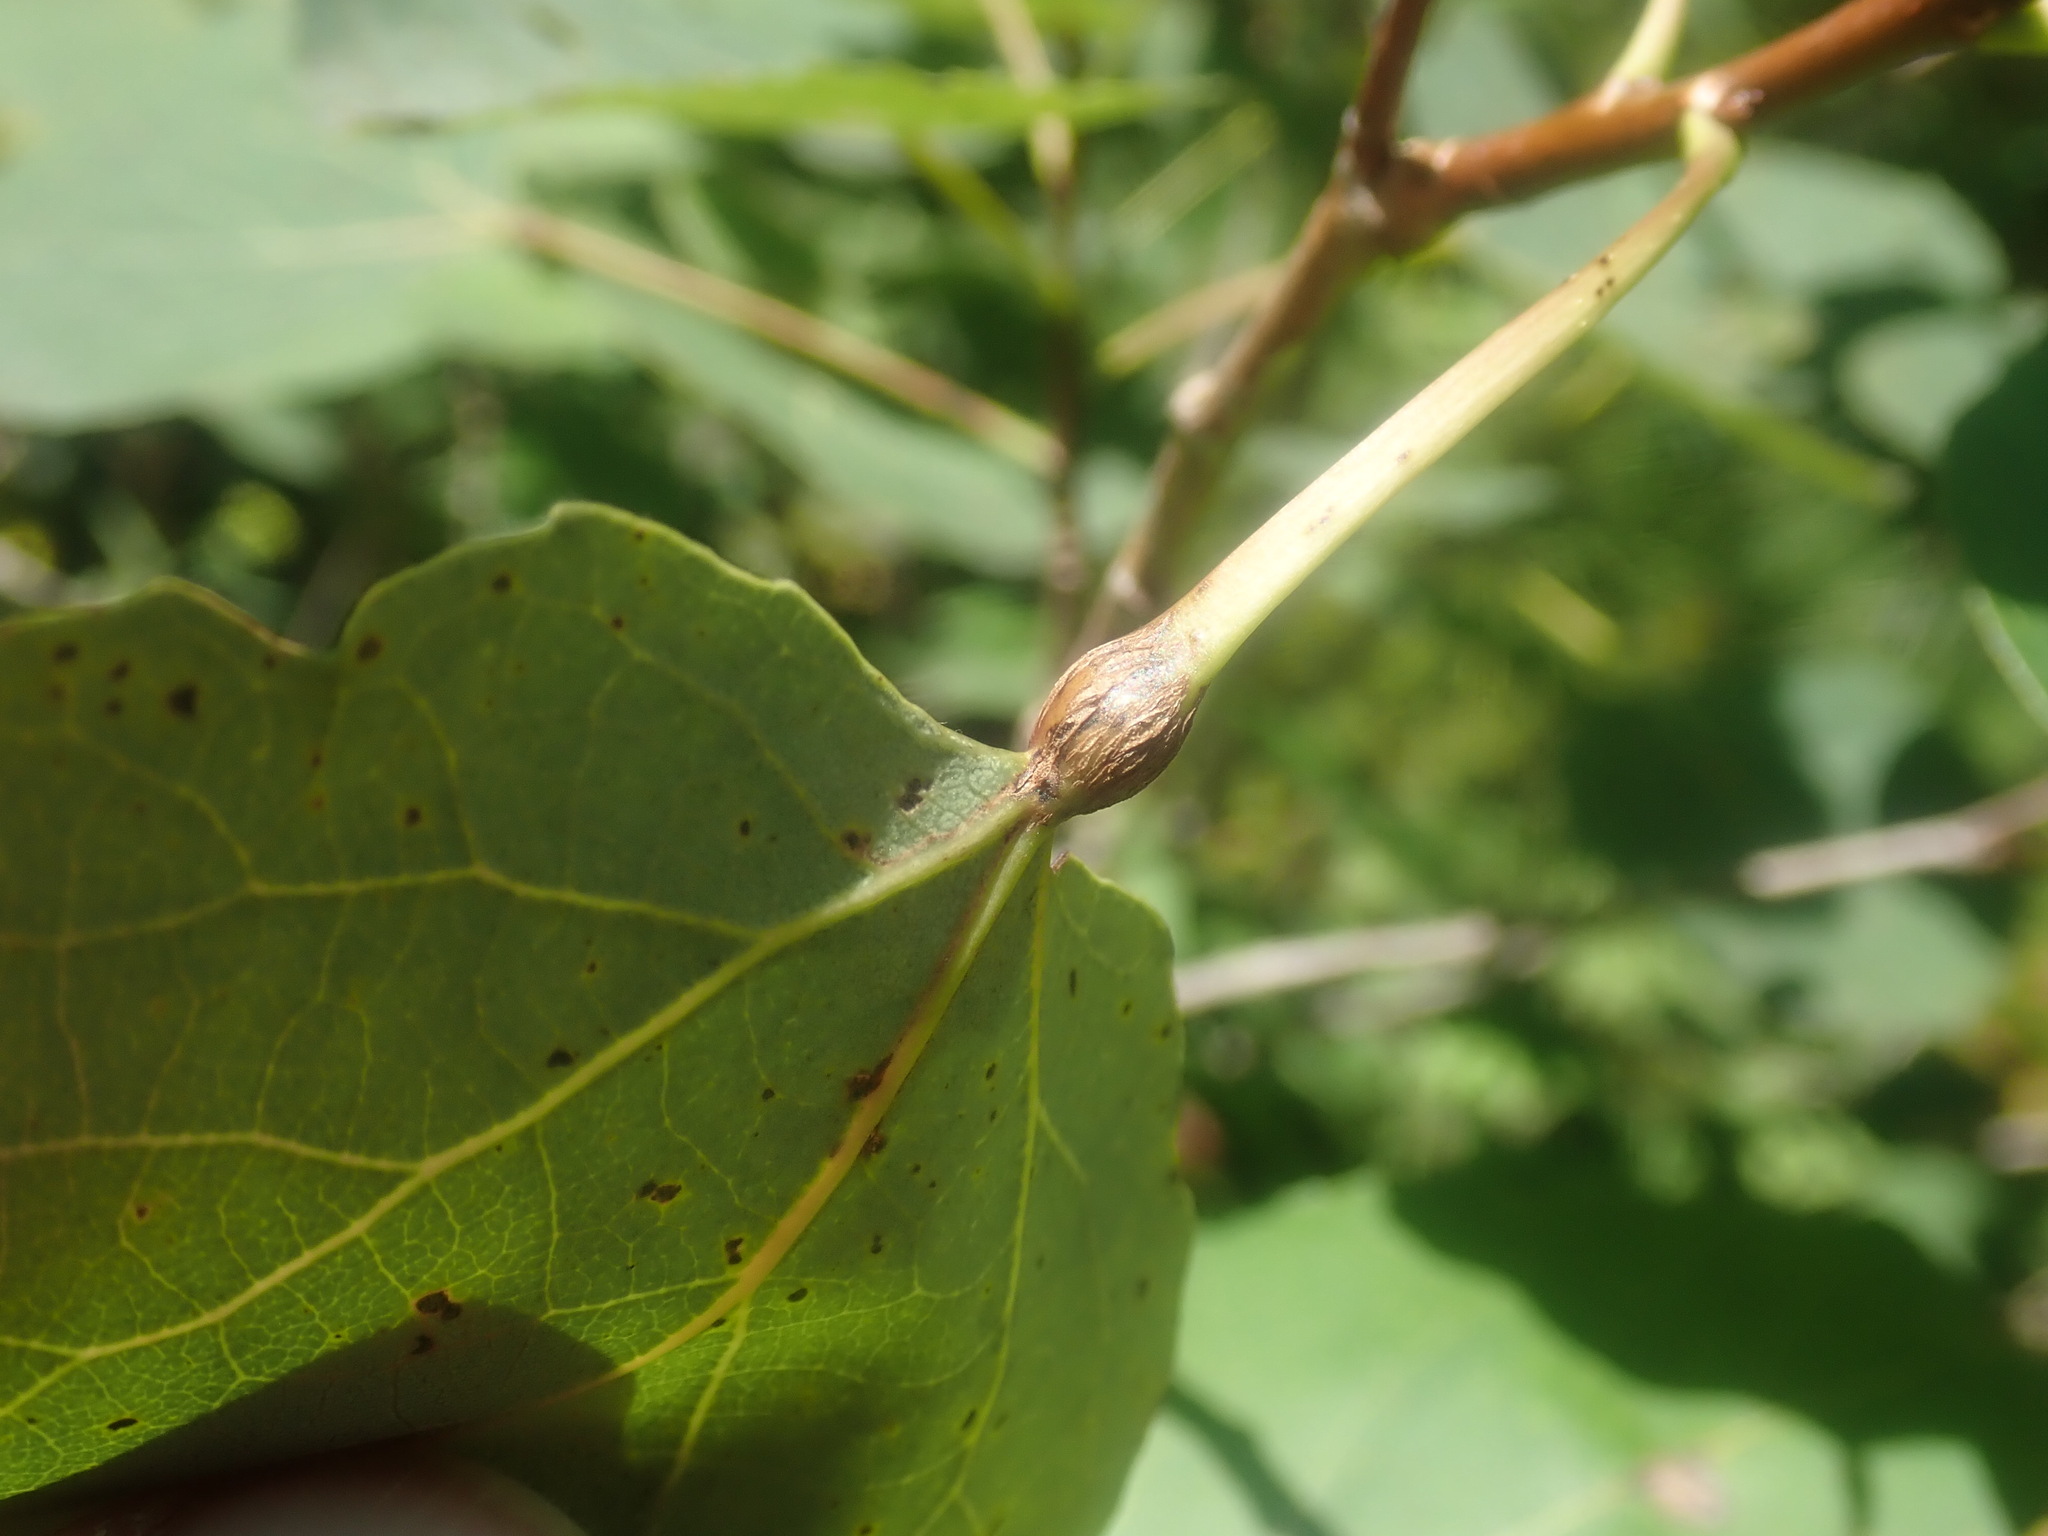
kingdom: Animalia
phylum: Arthropoda
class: Insecta
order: Lepidoptera
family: Nepticulidae
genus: Ectoedemia
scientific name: Ectoedemia populella
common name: Aspen petiole gall moth
